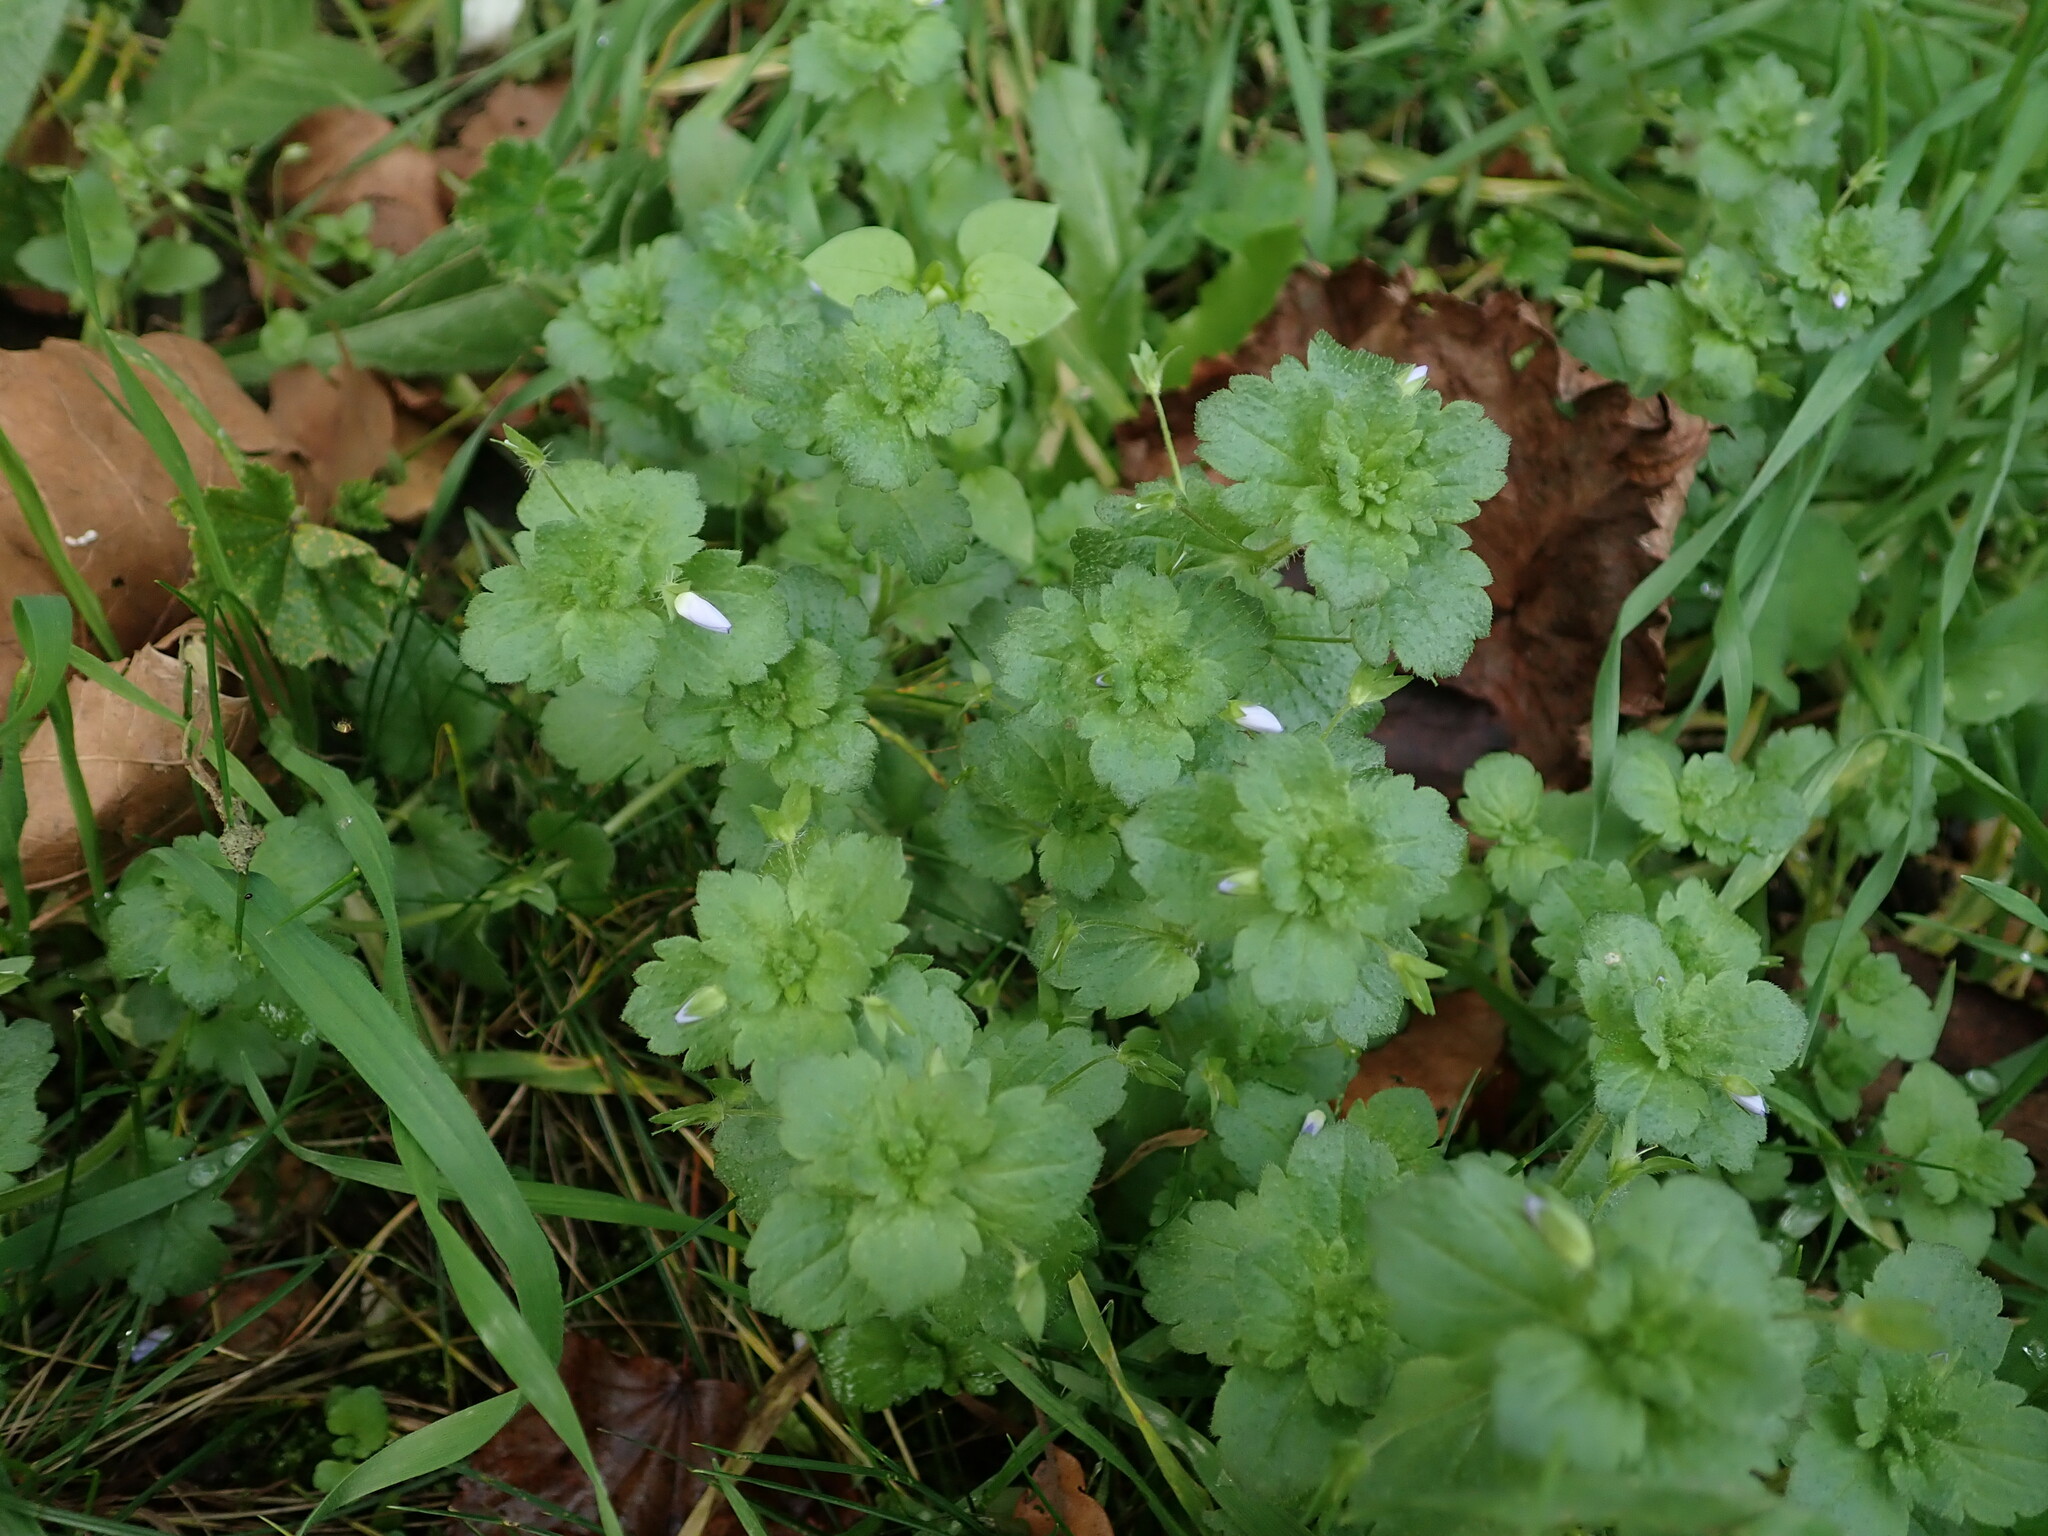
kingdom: Plantae
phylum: Tracheophyta
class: Magnoliopsida
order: Lamiales
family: Plantaginaceae
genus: Veronica
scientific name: Veronica persica
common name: Common field-speedwell
